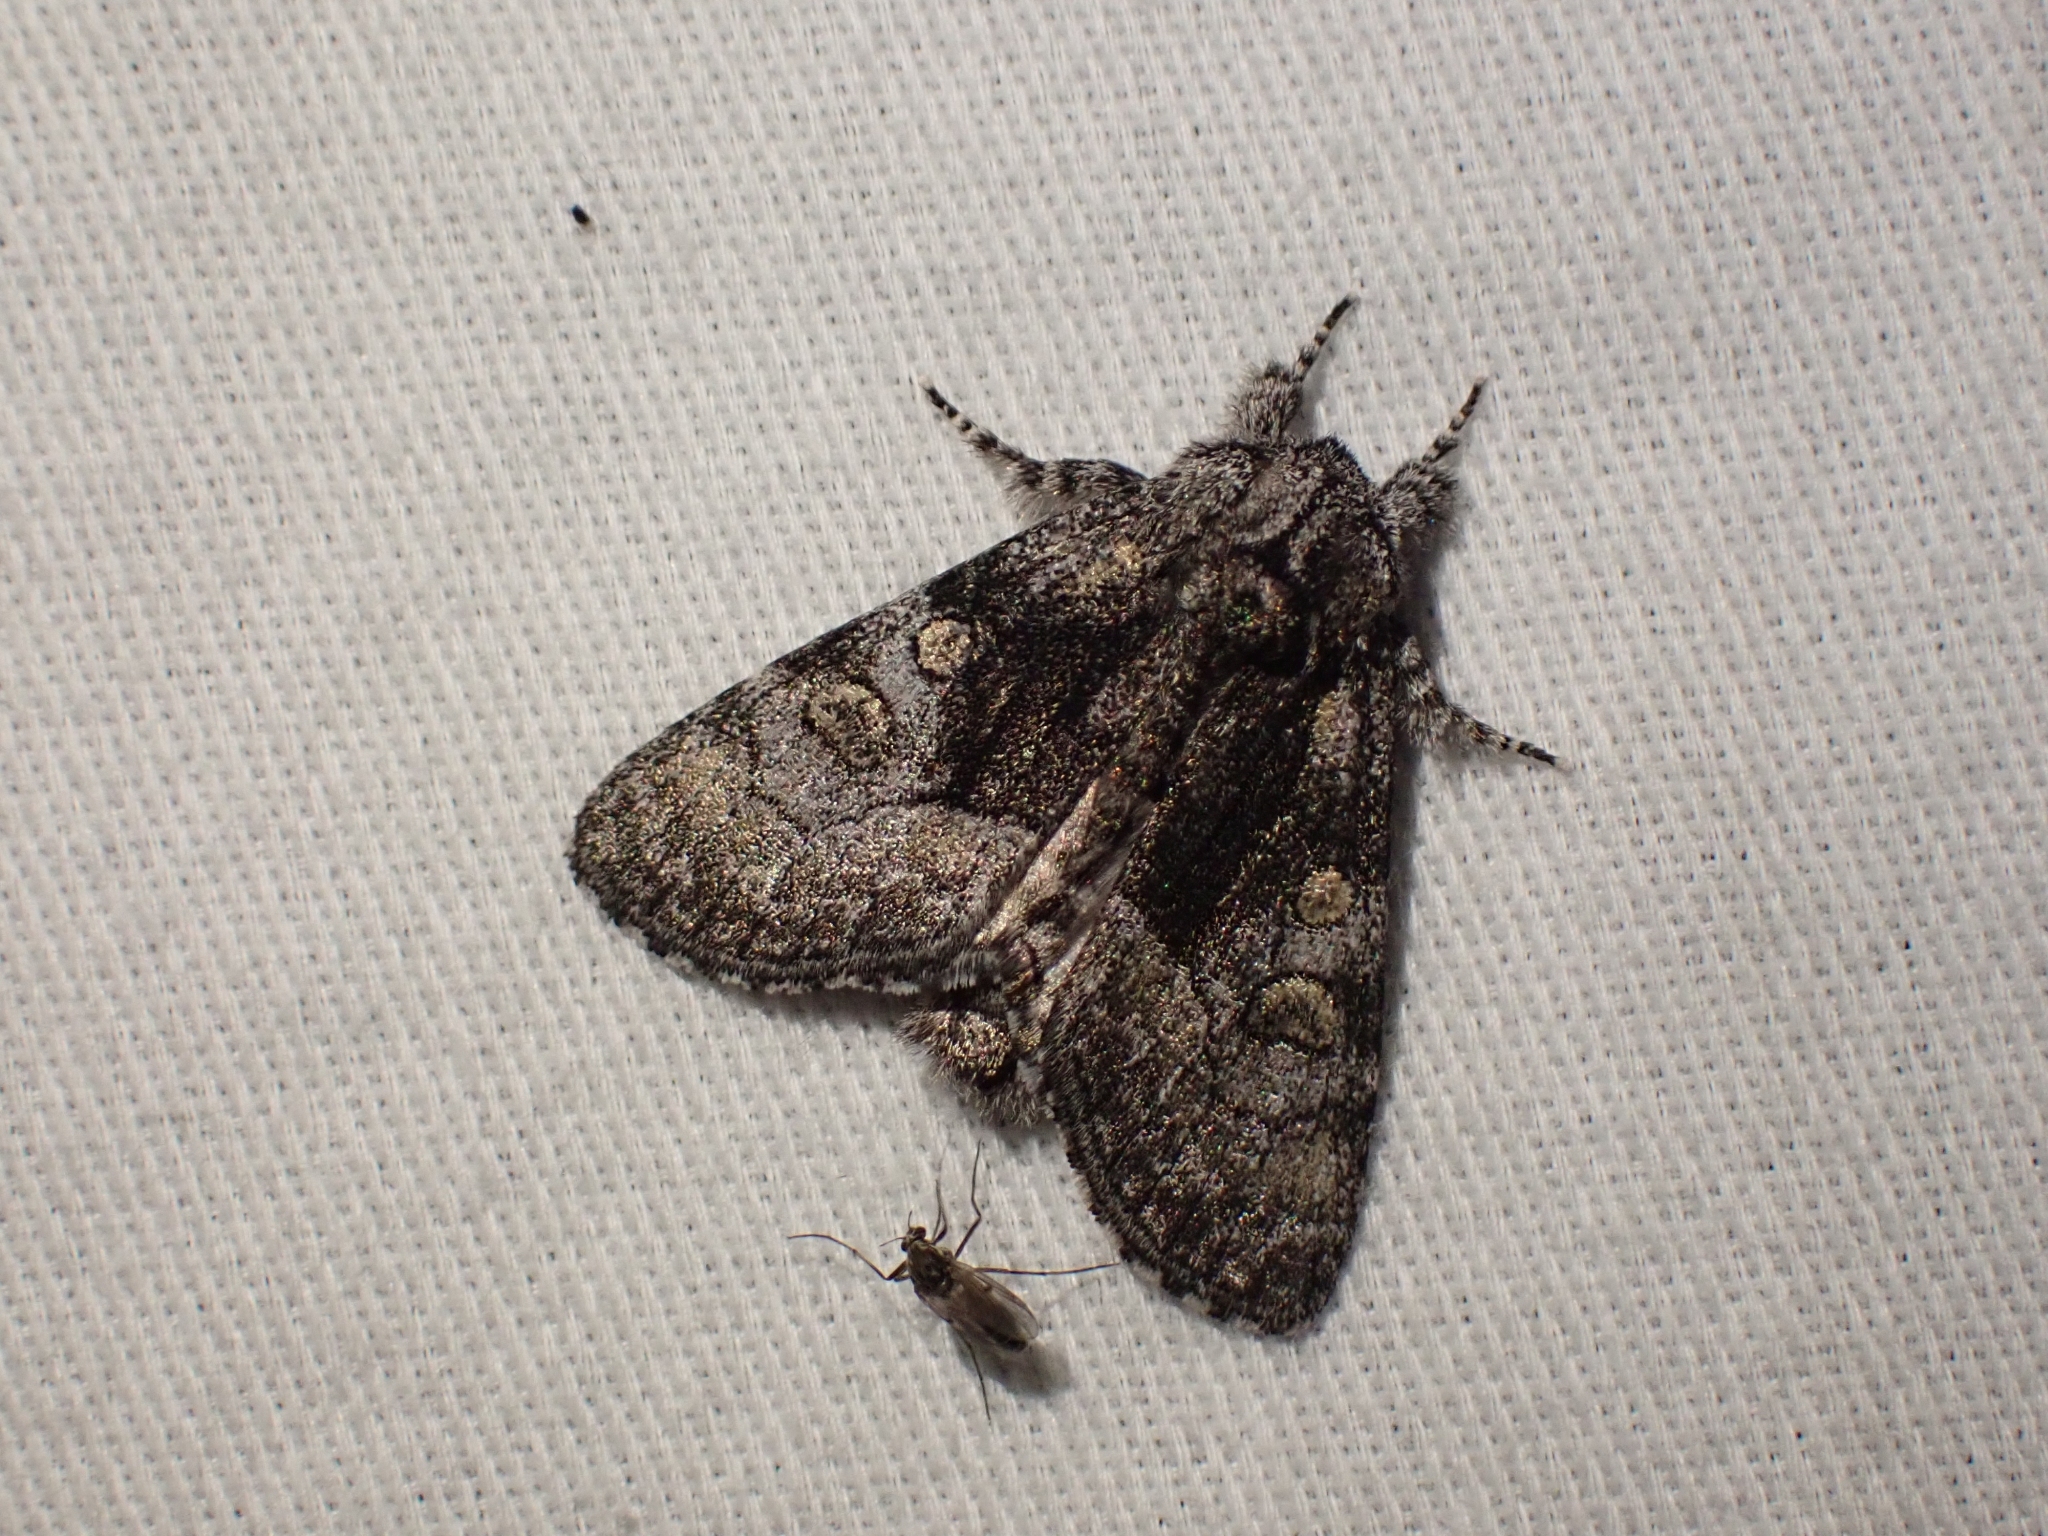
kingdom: Animalia
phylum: Arthropoda
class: Insecta
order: Lepidoptera
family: Noctuidae
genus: Raphia
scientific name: Raphia frater
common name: Brother
